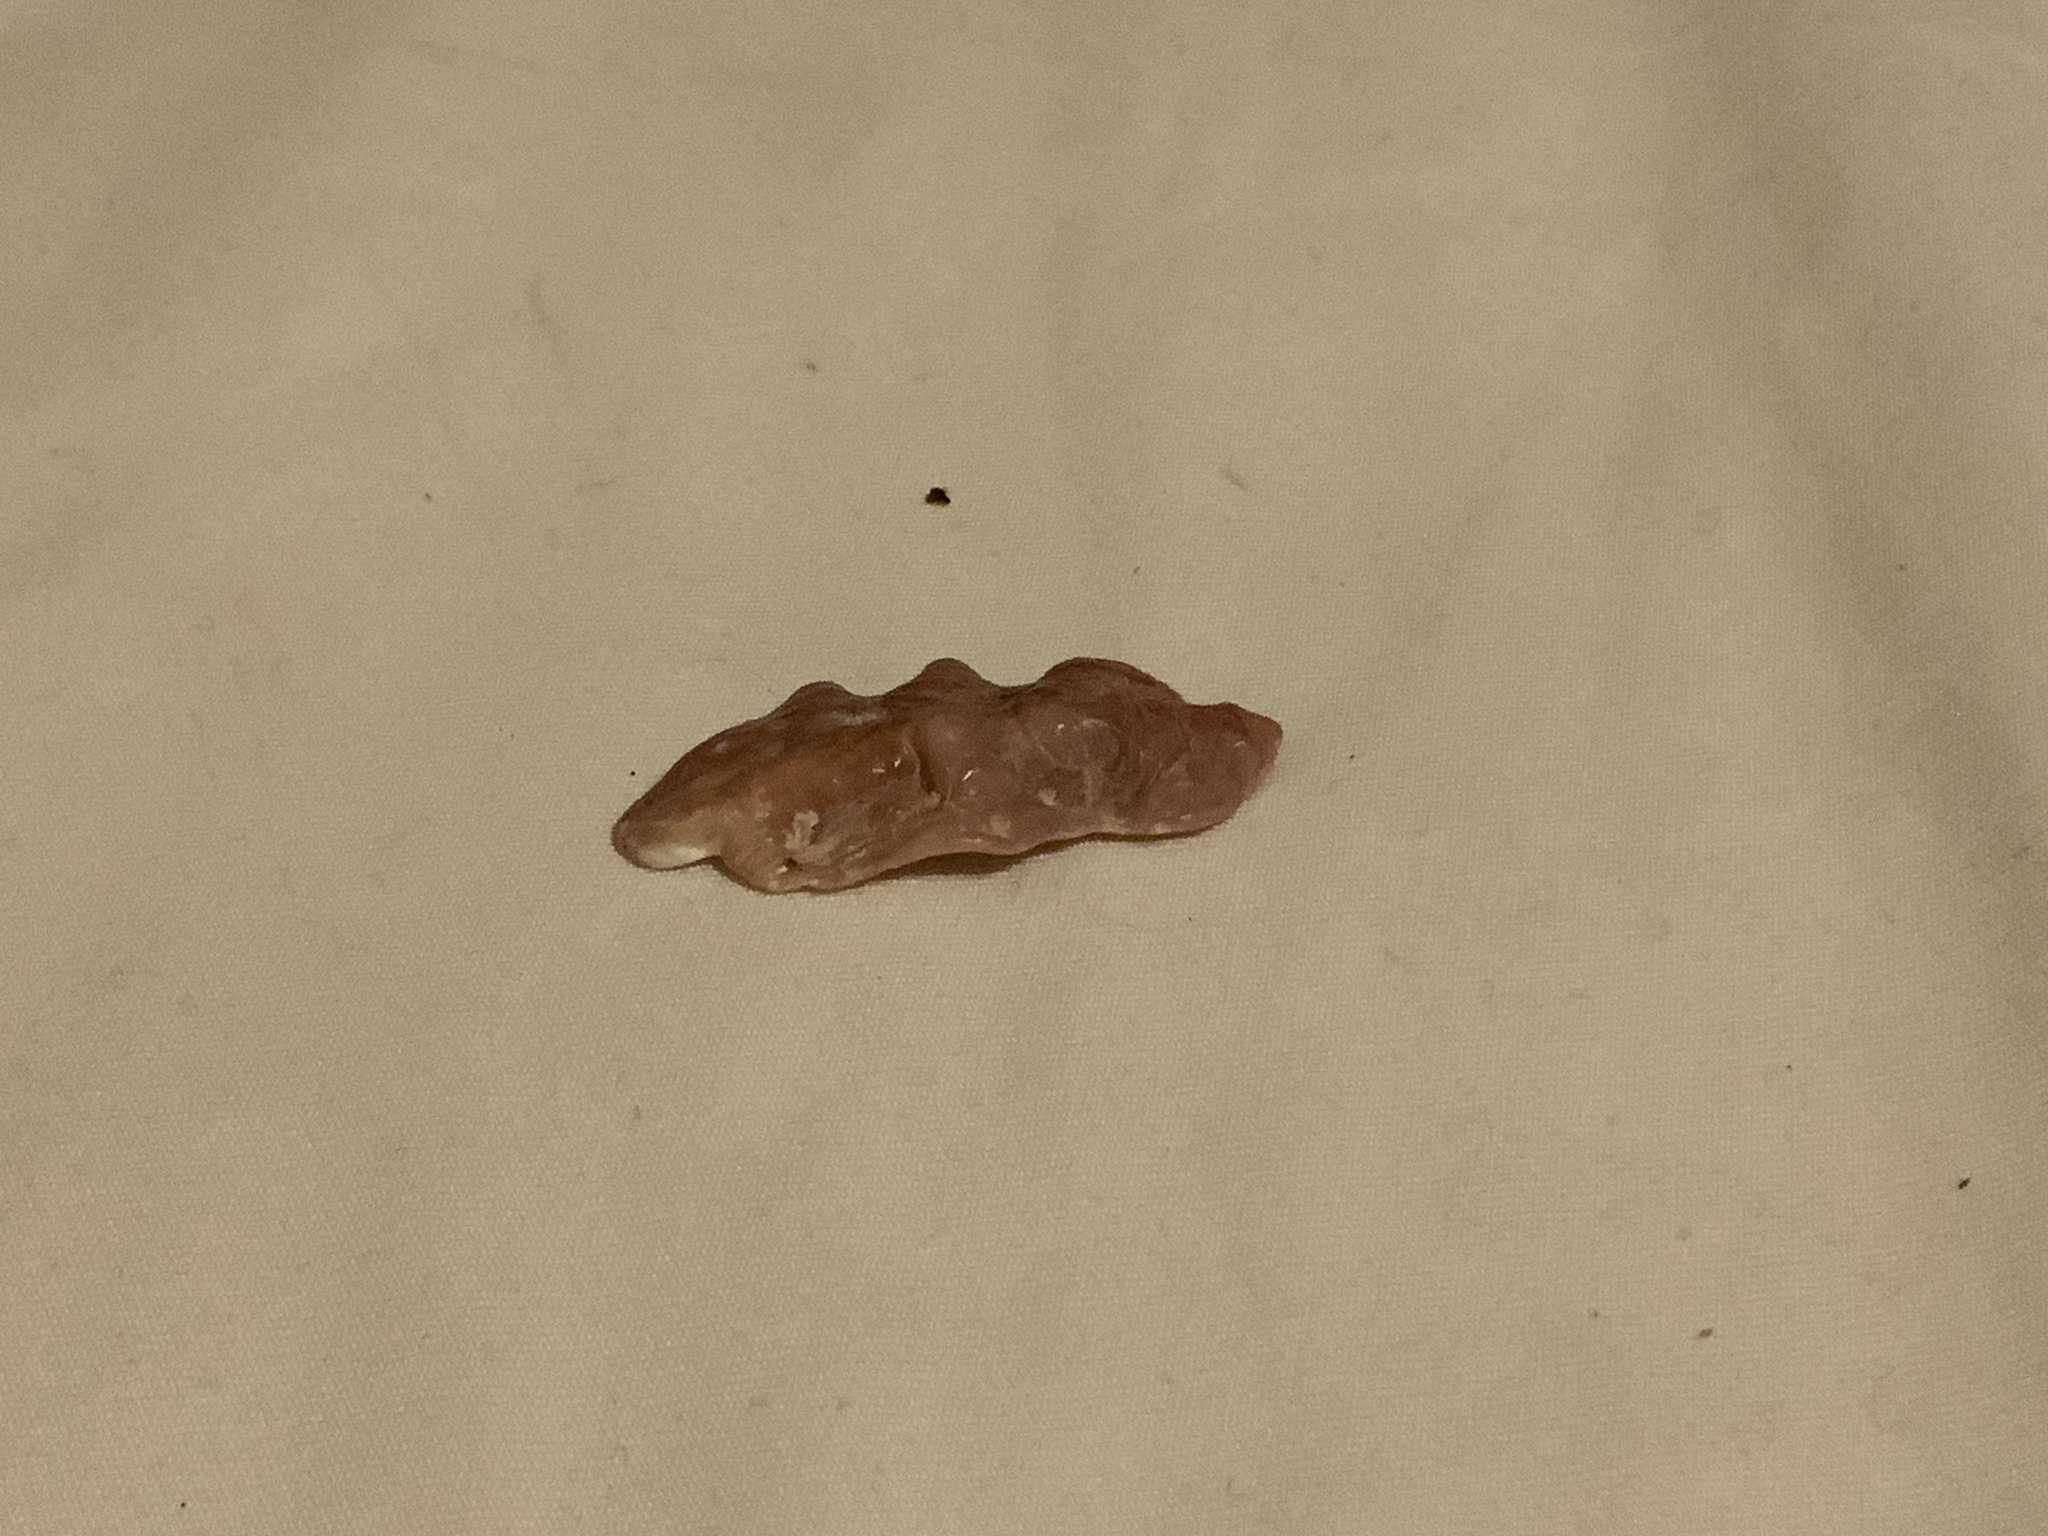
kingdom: Animalia
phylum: Mollusca
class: Bivalvia
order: Ostreida
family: Ostreidae
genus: Dendostrea
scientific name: Dendostrea frons
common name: Frond oyster
